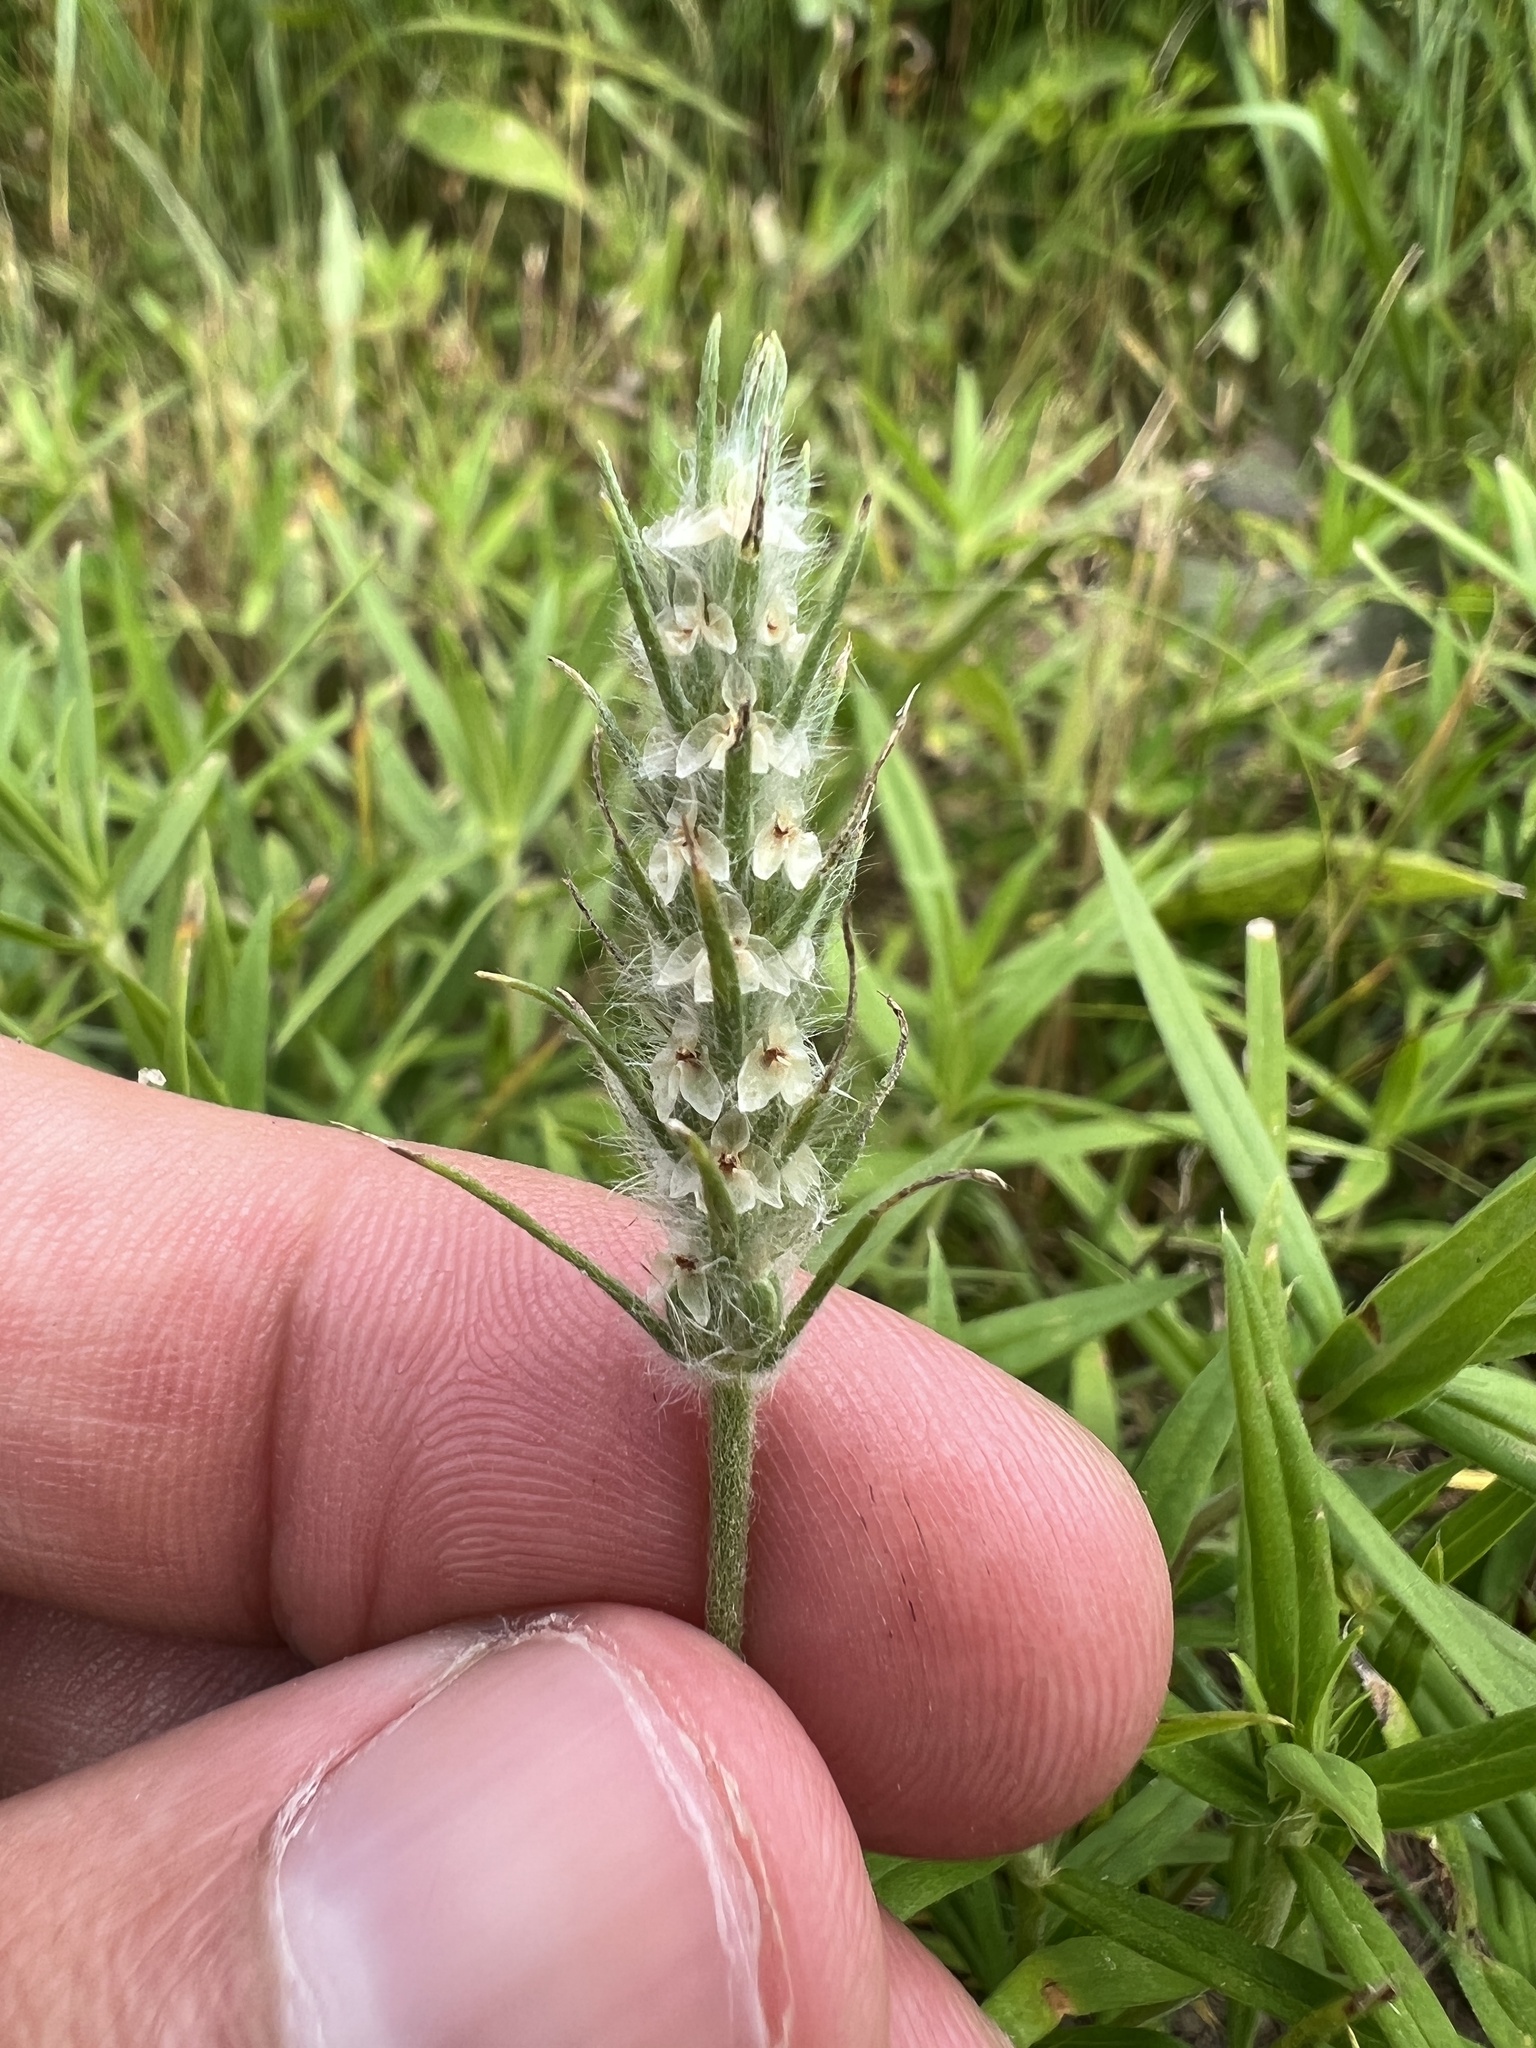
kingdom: Plantae
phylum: Tracheophyta
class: Magnoliopsida
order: Lamiales
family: Plantaginaceae
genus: Plantago
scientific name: Plantago aristata
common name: Bracted plantain
